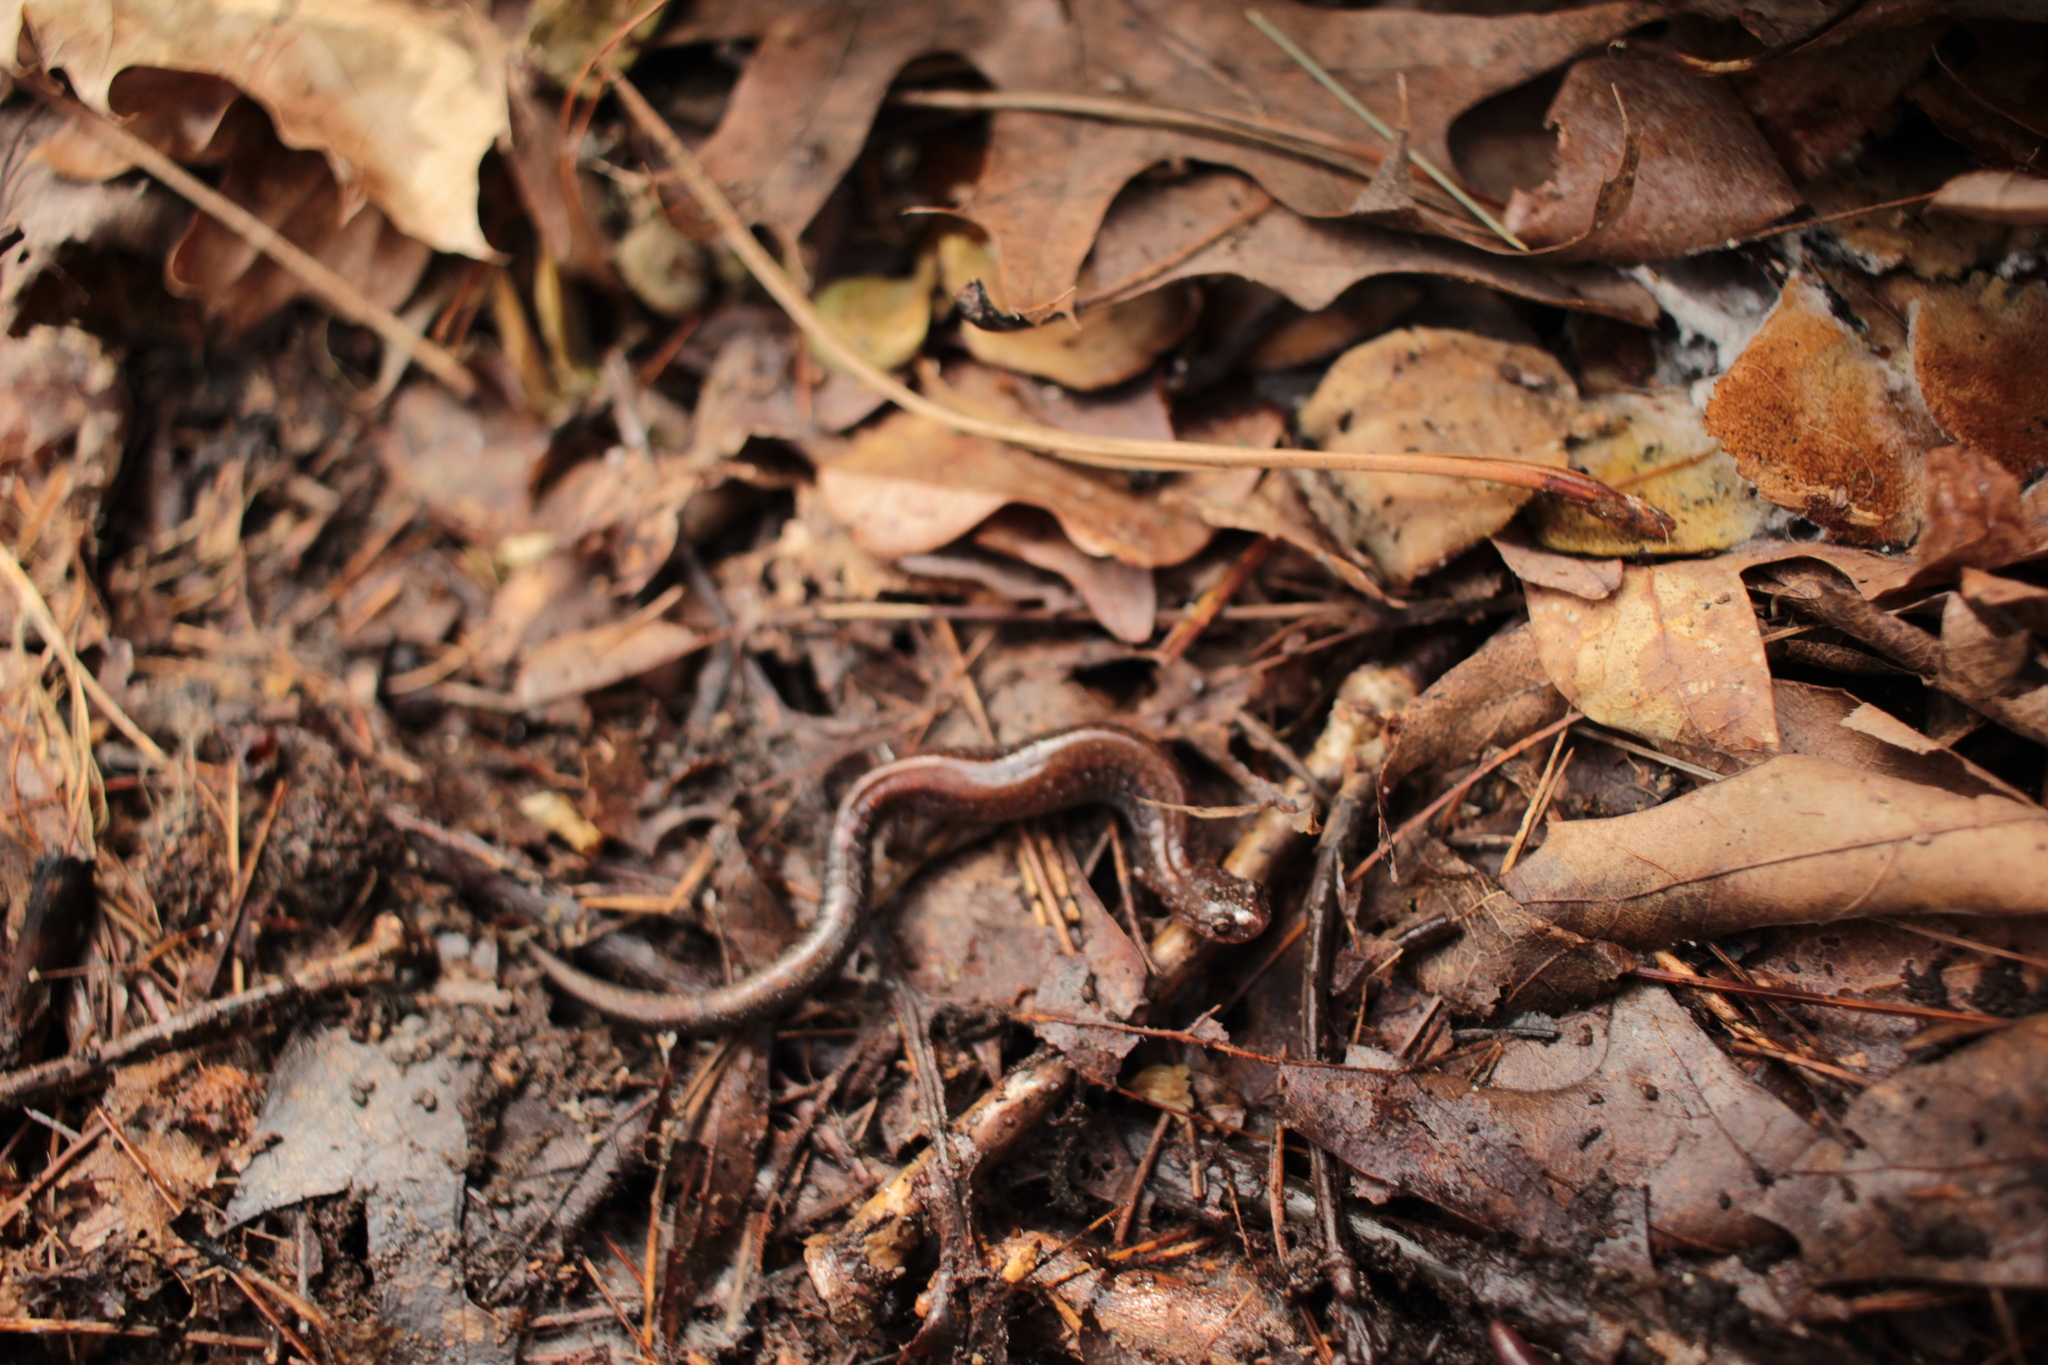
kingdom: Animalia
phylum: Chordata
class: Amphibia
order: Caudata
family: Plethodontidae
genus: Plethodon
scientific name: Plethodon cinereus
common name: Redback salamander
